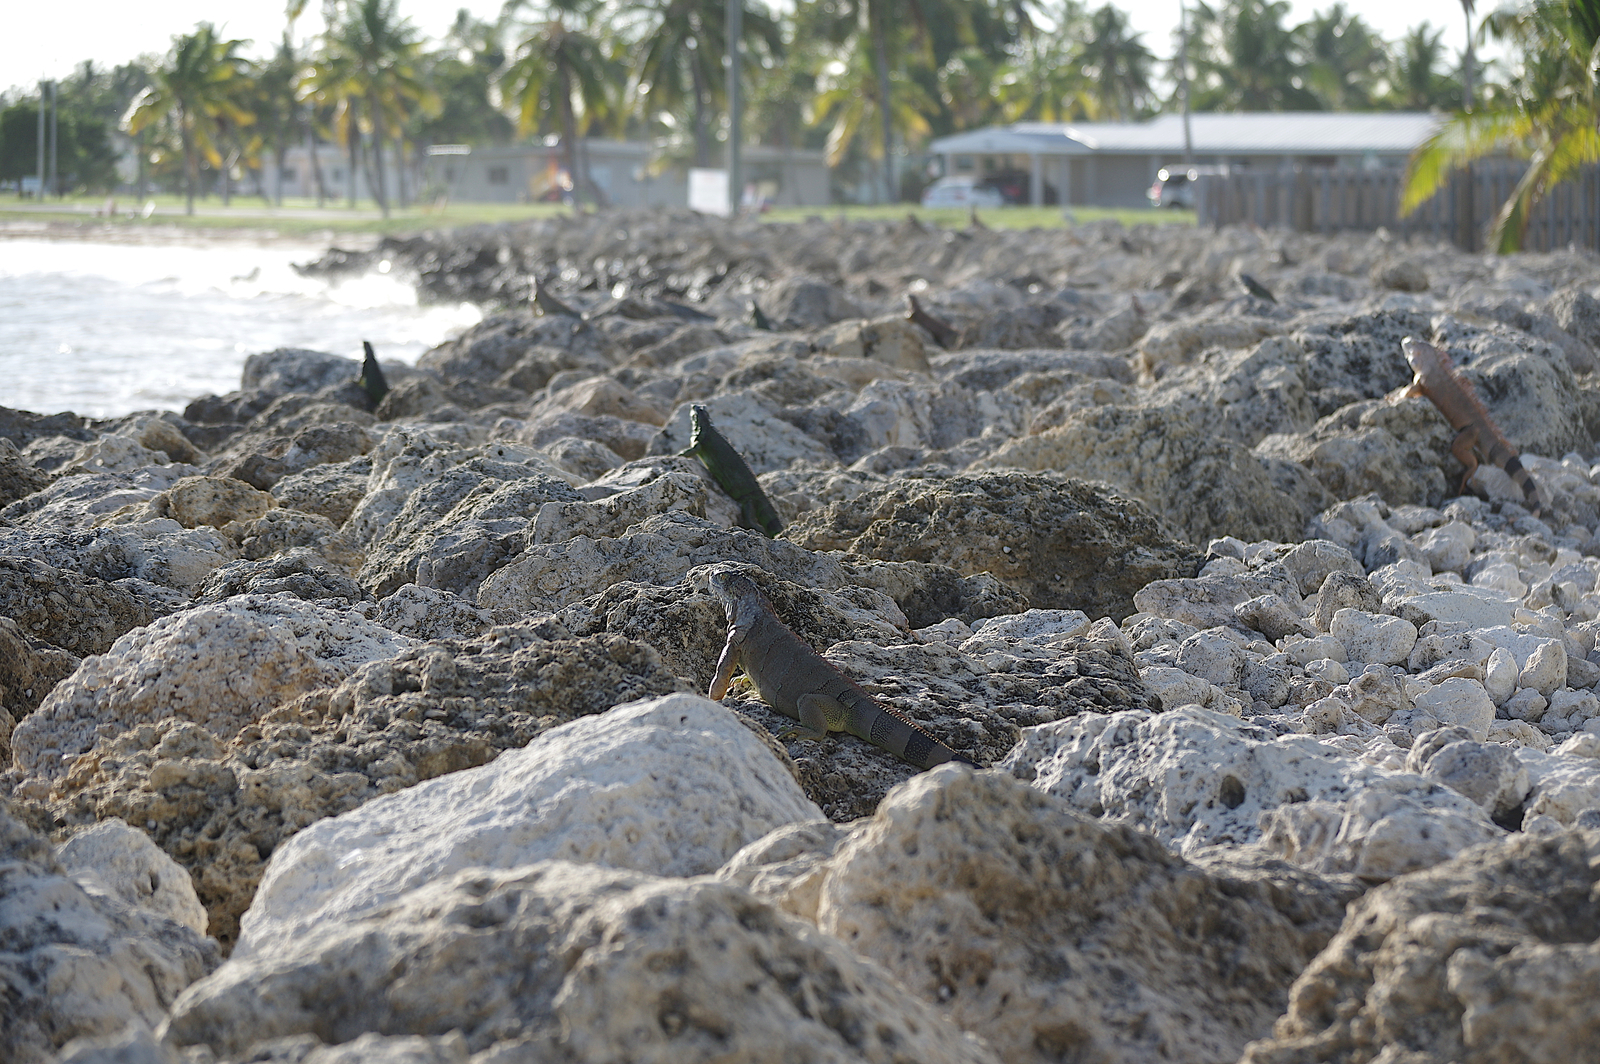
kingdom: Animalia
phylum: Chordata
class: Squamata
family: Iguanidae
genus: Iguana
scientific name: Iguana iguana
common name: Green iguana
